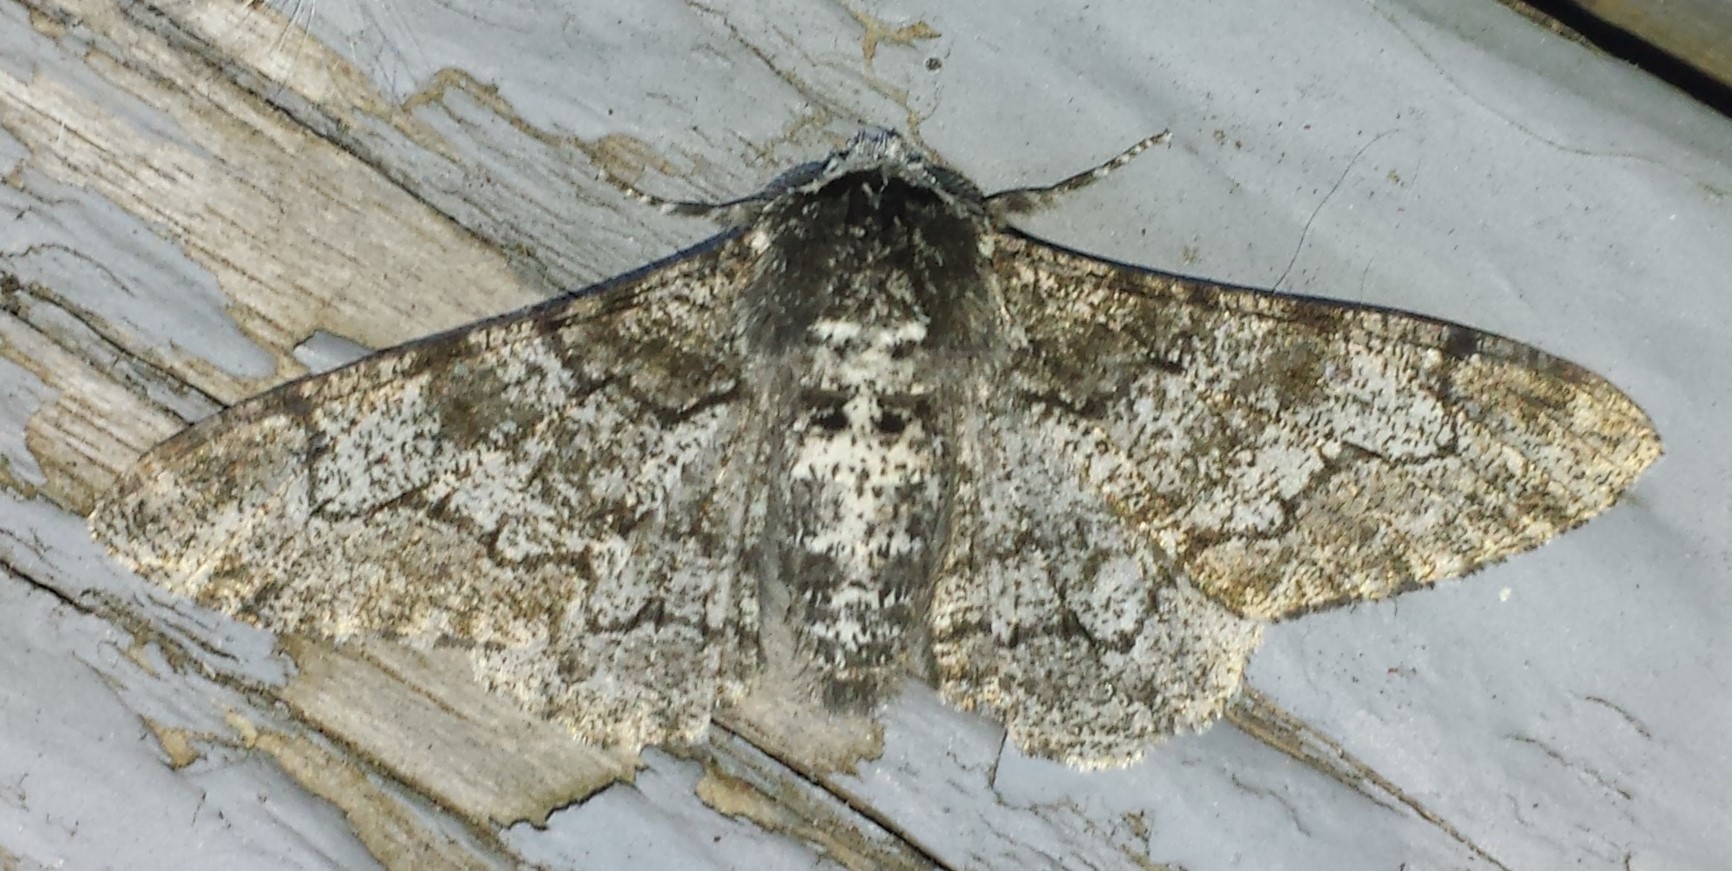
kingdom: Animalia
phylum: Arthropoda
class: Insecta
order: Lepidoptera
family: Geometridae
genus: Biston
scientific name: Biston betularia
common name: Peppered moth
